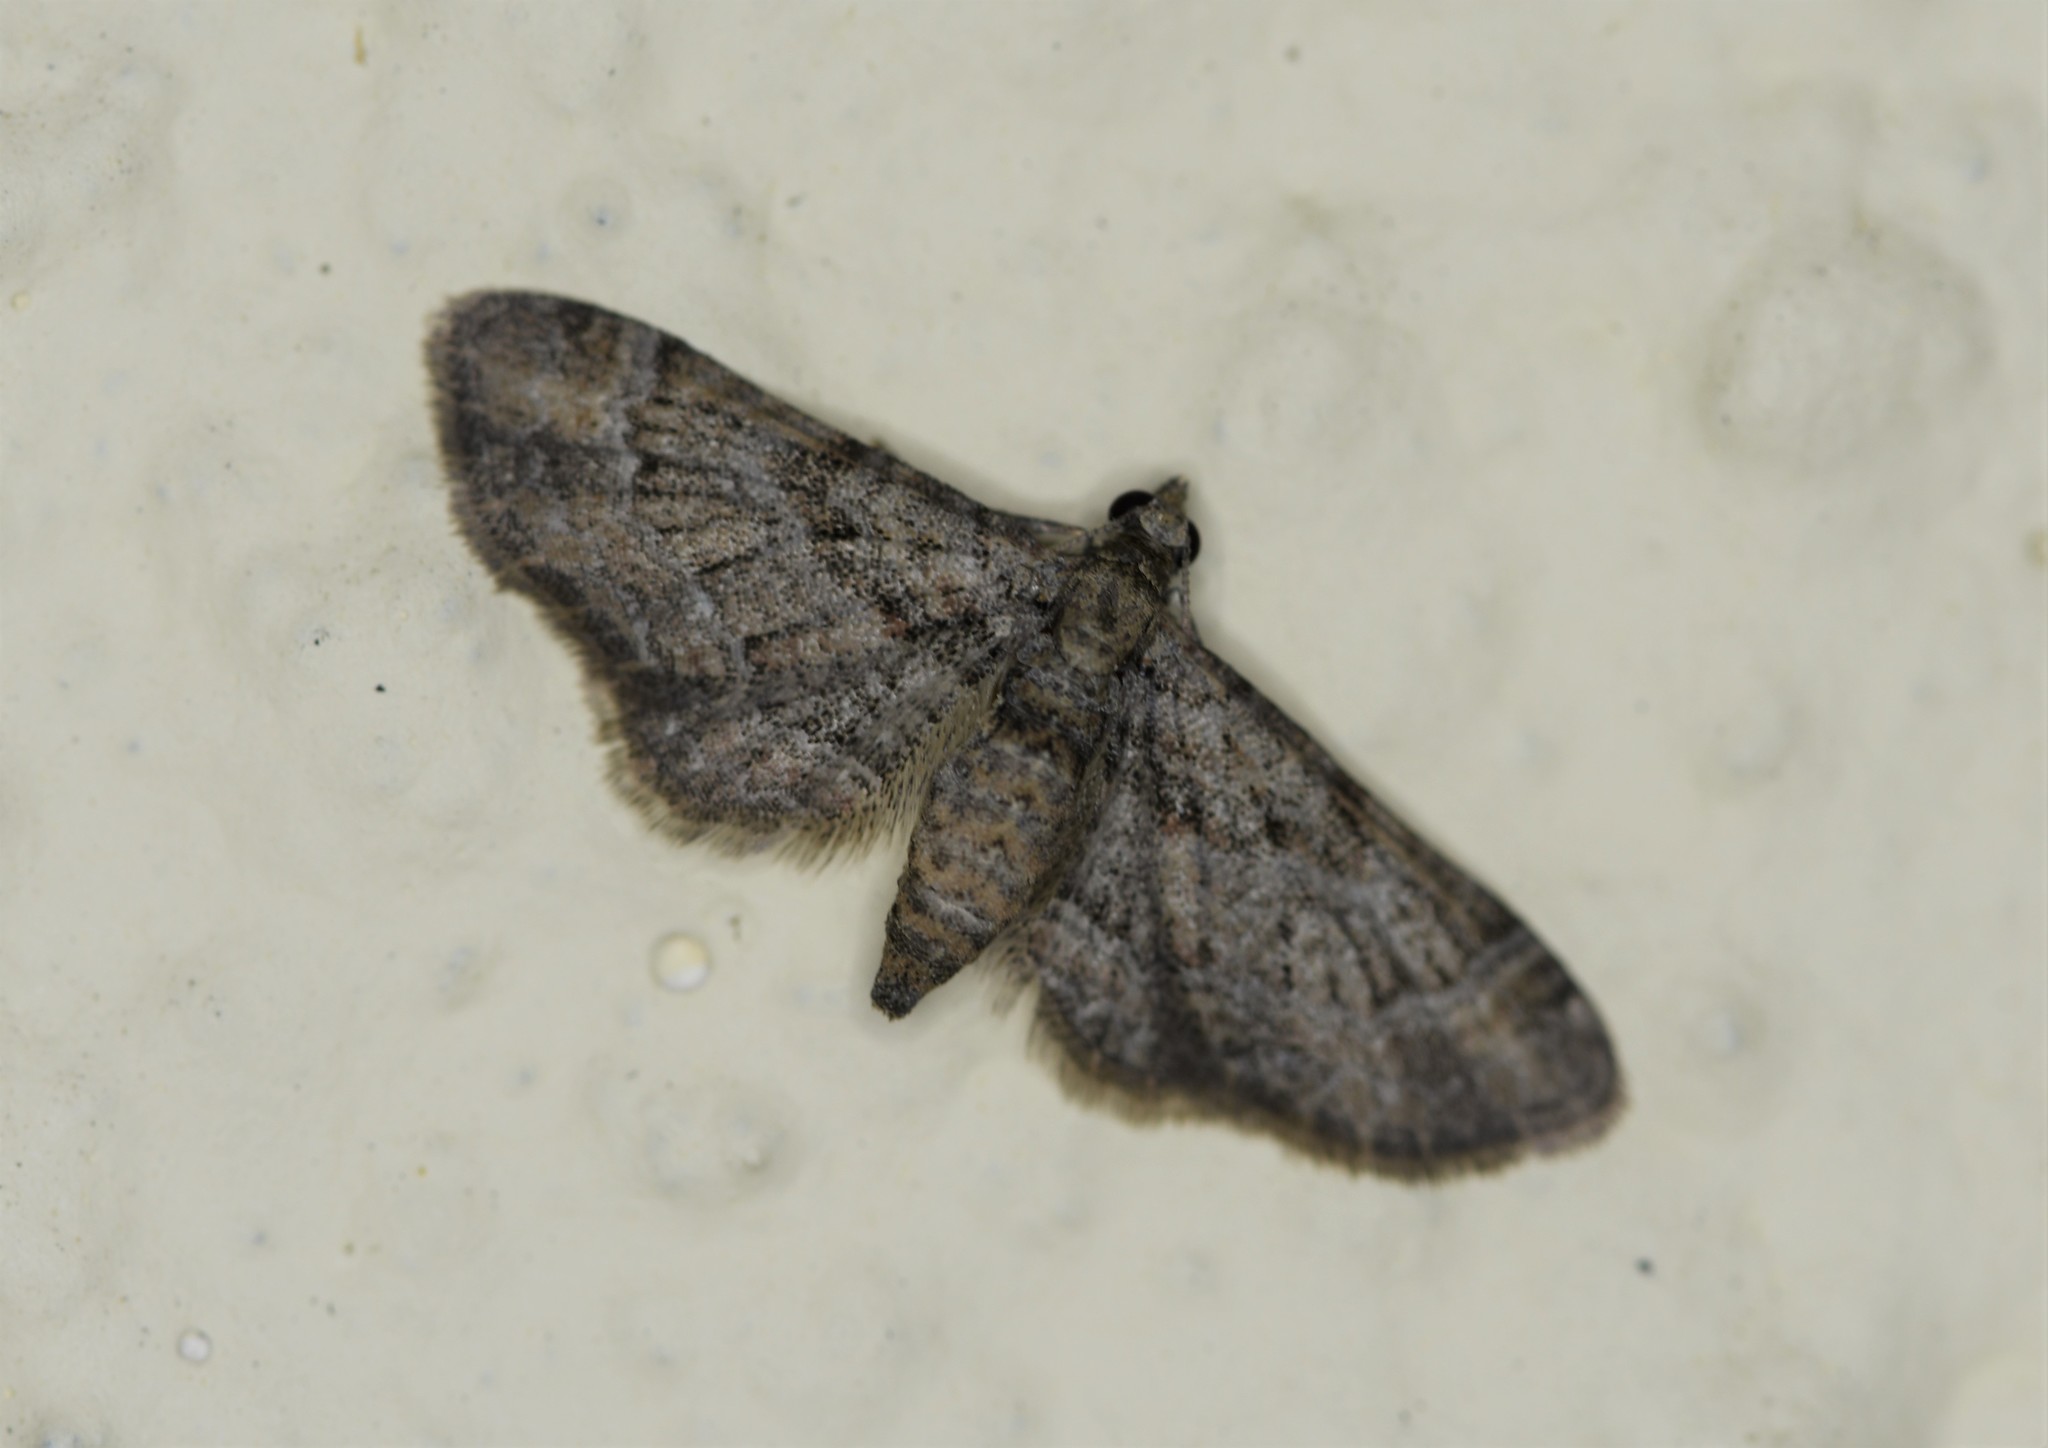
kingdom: Animalia
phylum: Arthropoda
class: Insecta
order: Lepidoptera
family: Geometridae
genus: Gymnoscelis
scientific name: Gymnoscelis rufifasciata
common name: Double-striped pug
